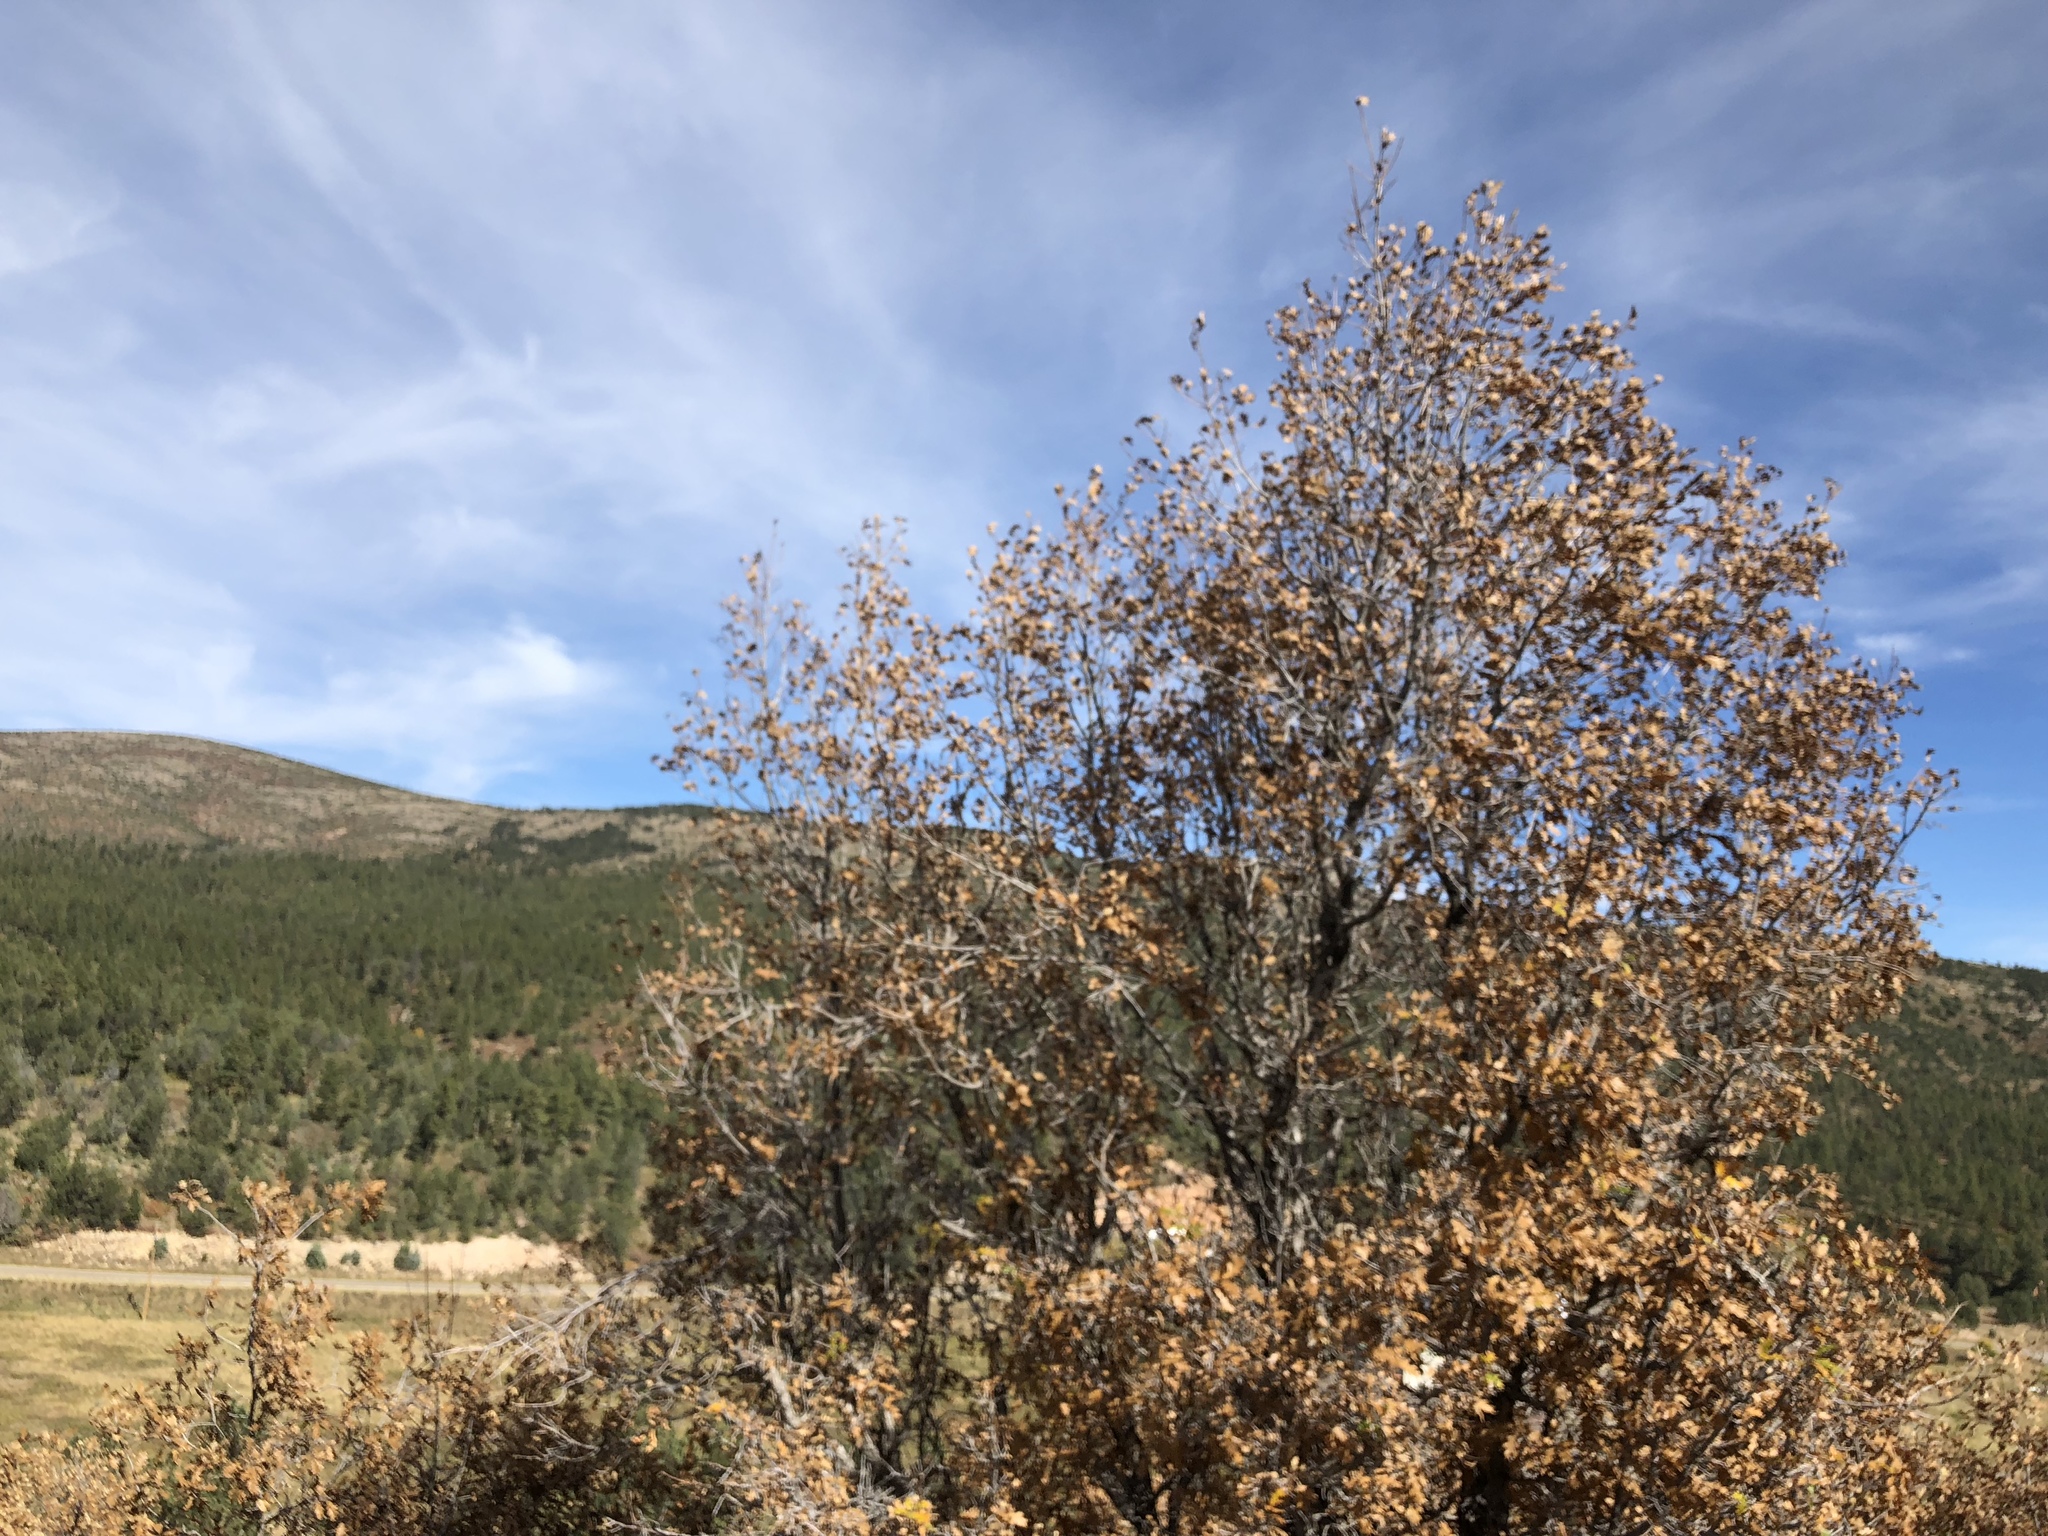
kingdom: Plantae
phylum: Tracheophyta
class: Magnoliopsida
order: Fagales
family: Fagaceae
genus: Quercus
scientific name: Quercus gambelii
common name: Gambel oak
